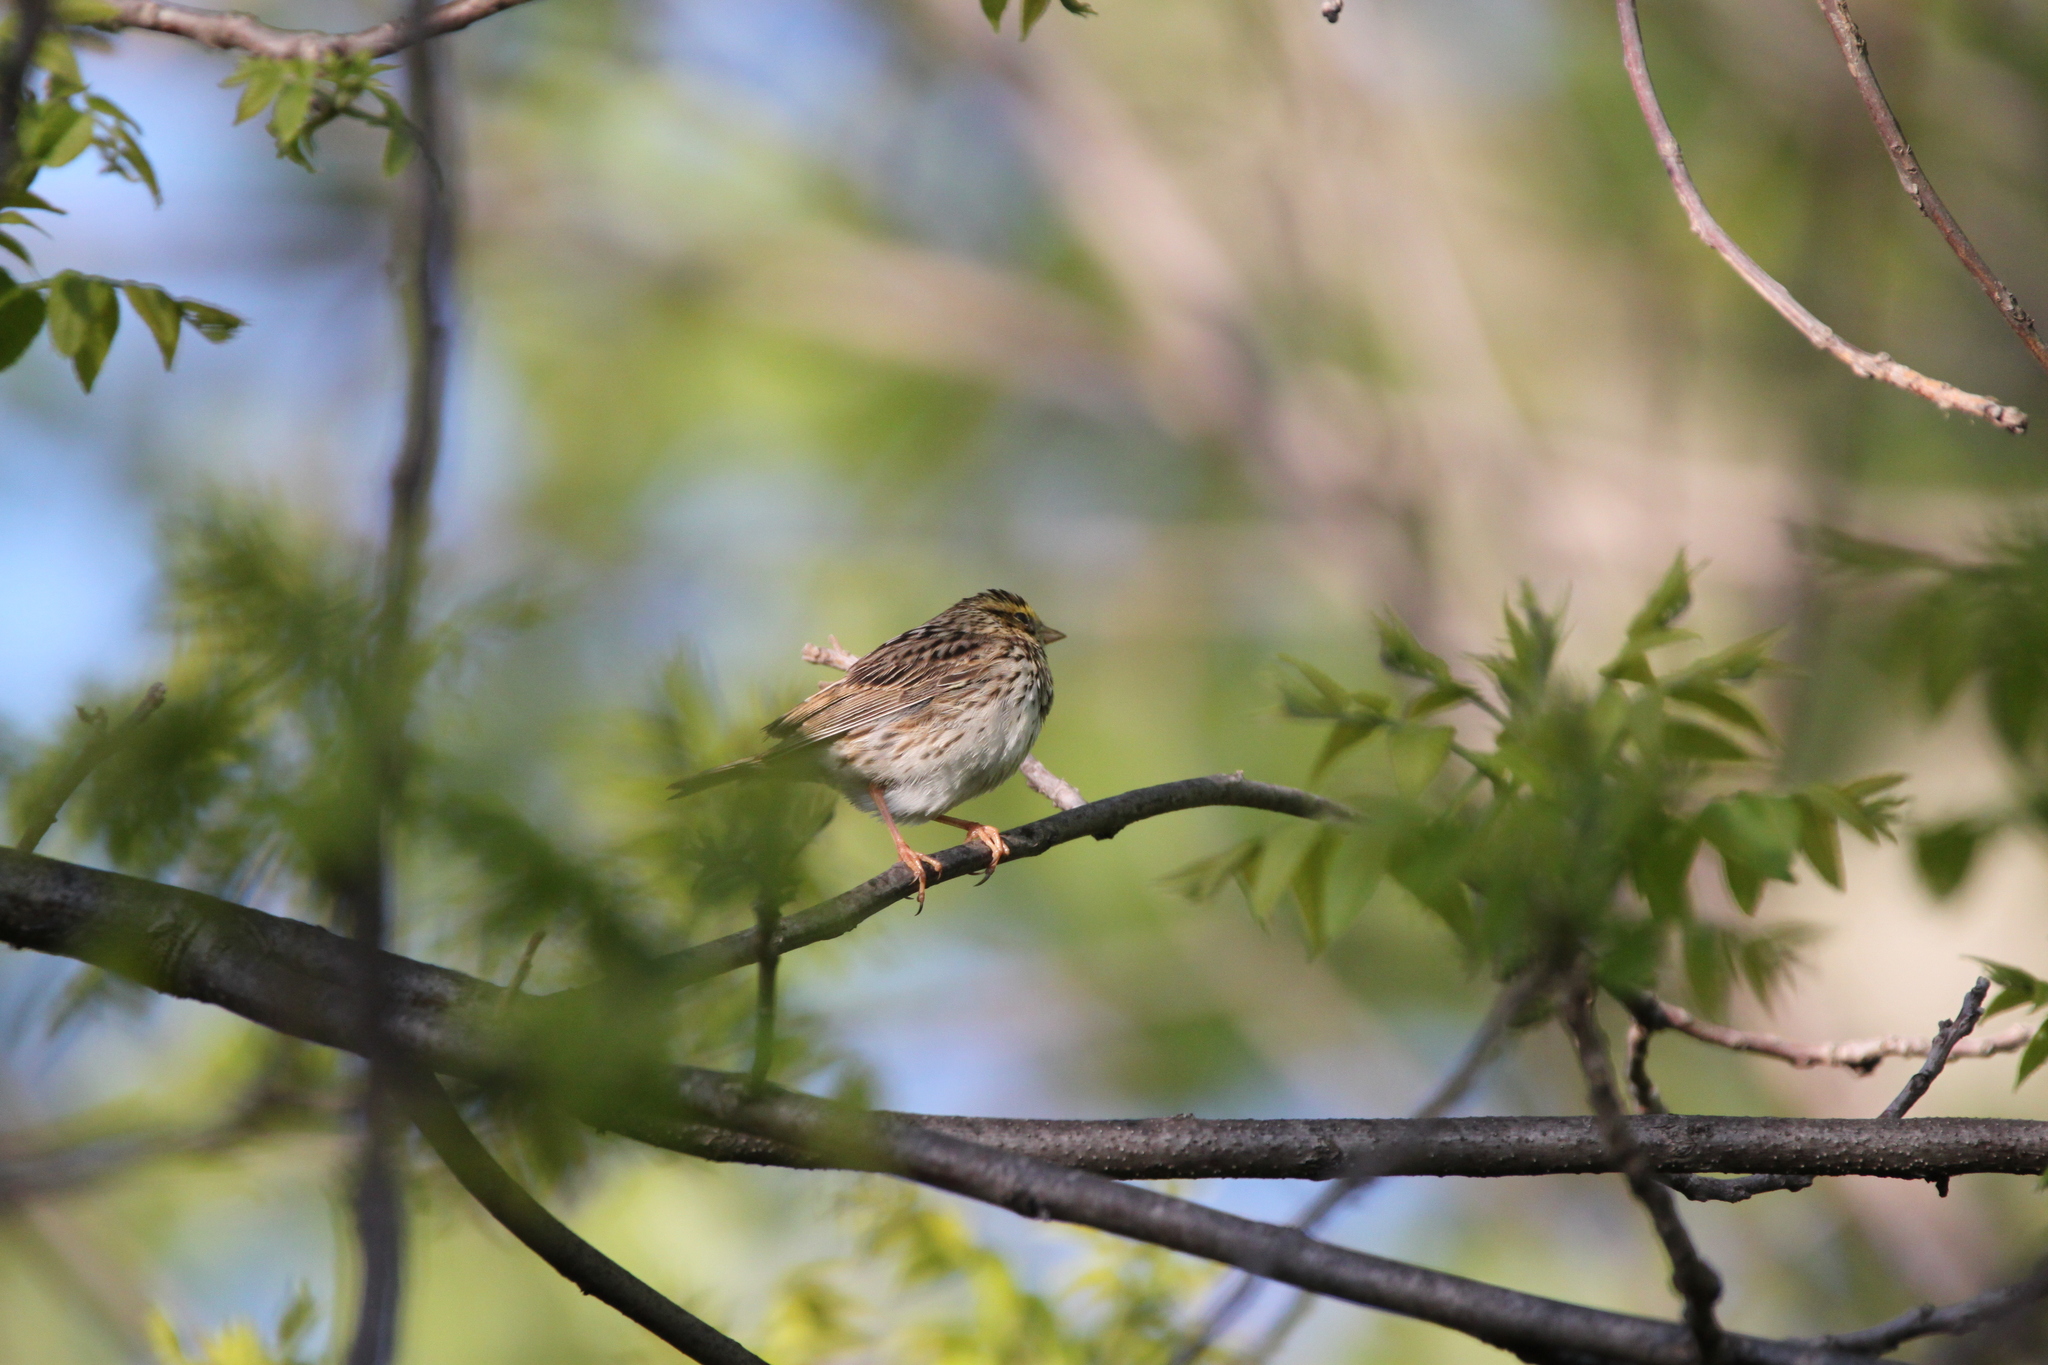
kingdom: Animalia
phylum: Chordata
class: Aves
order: Passeriformes
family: Passerellidae
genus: Passerculus
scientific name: Passerculus sandwichensis
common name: Savannah sparrow
